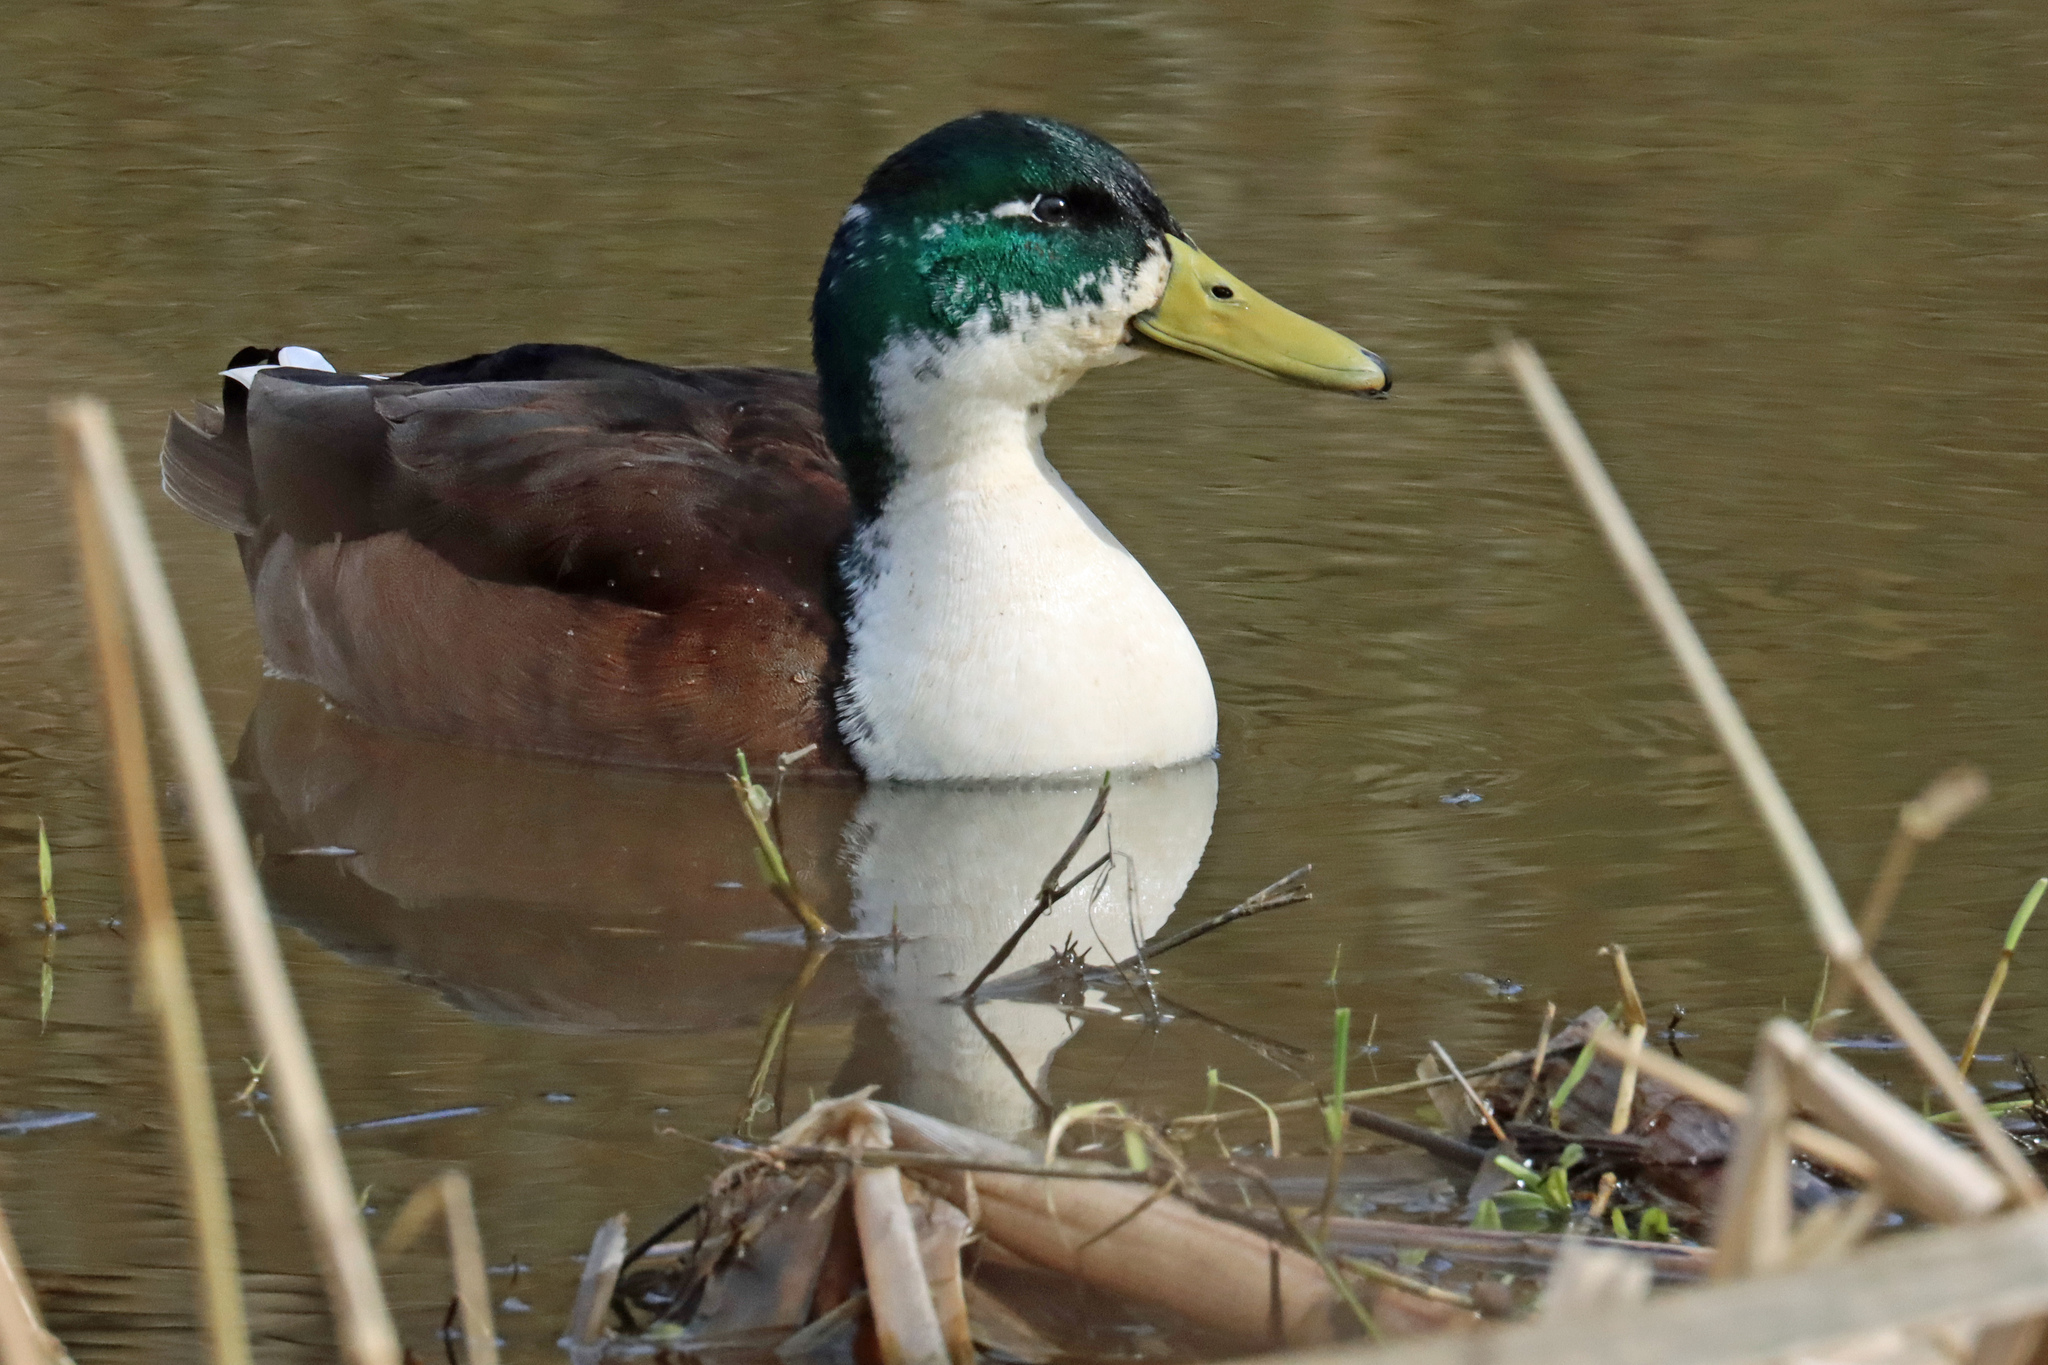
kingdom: Animalia
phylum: Chordata
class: Aves
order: Anseriformes
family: Anatidae
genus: Anas
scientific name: Anas platyrhynchos
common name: Mallard
